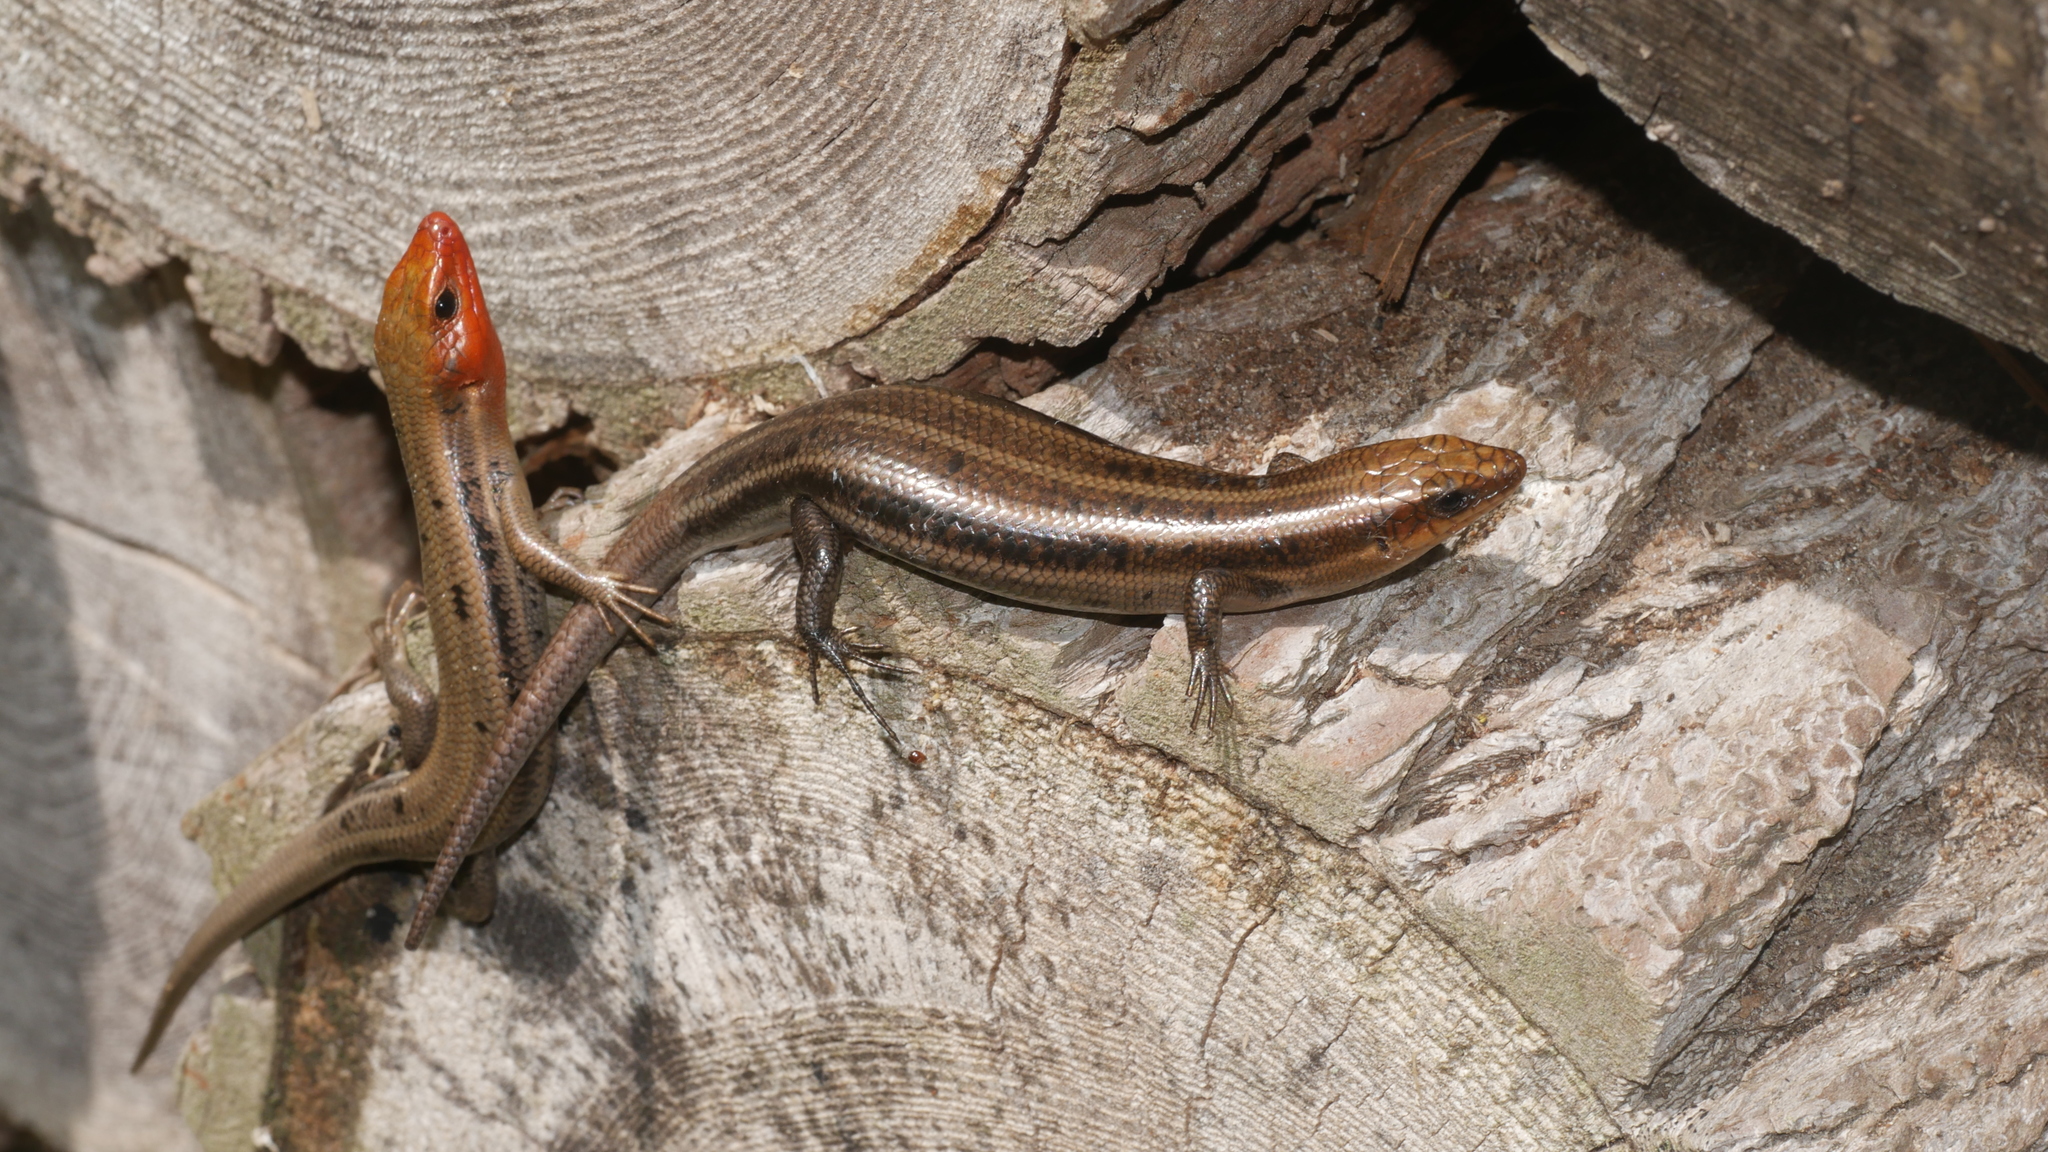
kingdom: Animalia
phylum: Chordata
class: Squamata
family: Scincidae
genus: Plestiodon
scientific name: Plestiodon fasciatus
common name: Five-lined skink
